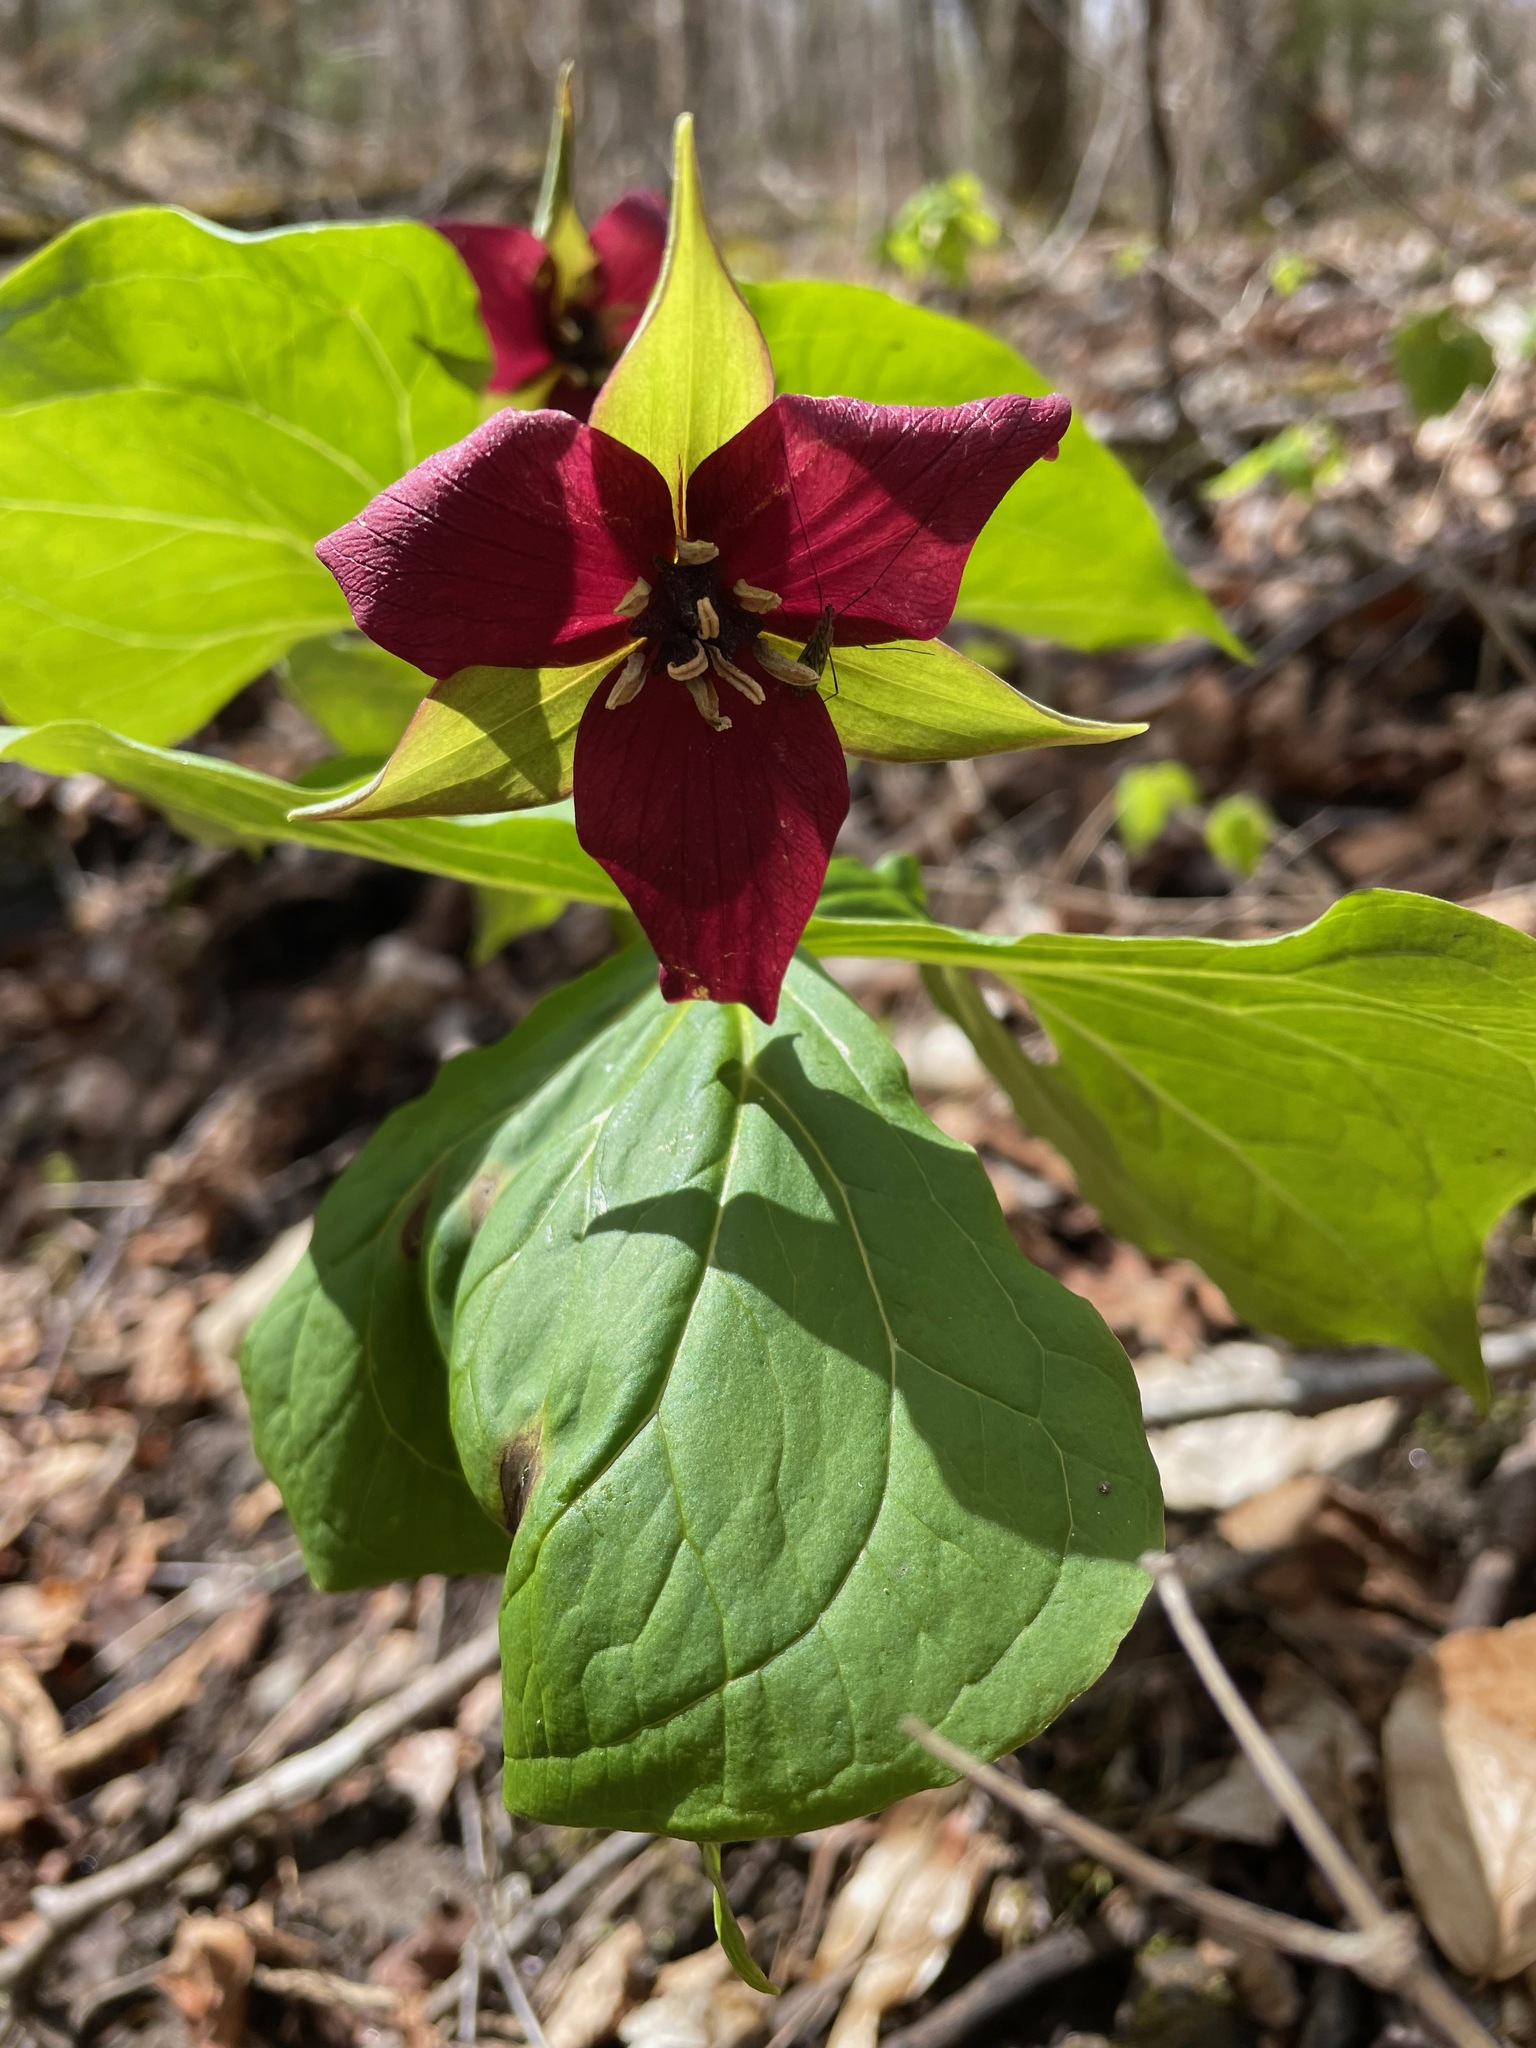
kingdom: Plantae
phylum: Tracheophyta
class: Liliopsida
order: Liliales
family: Melanthiaceae
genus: Trillium
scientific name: Trillium erectum
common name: Purple trillium
